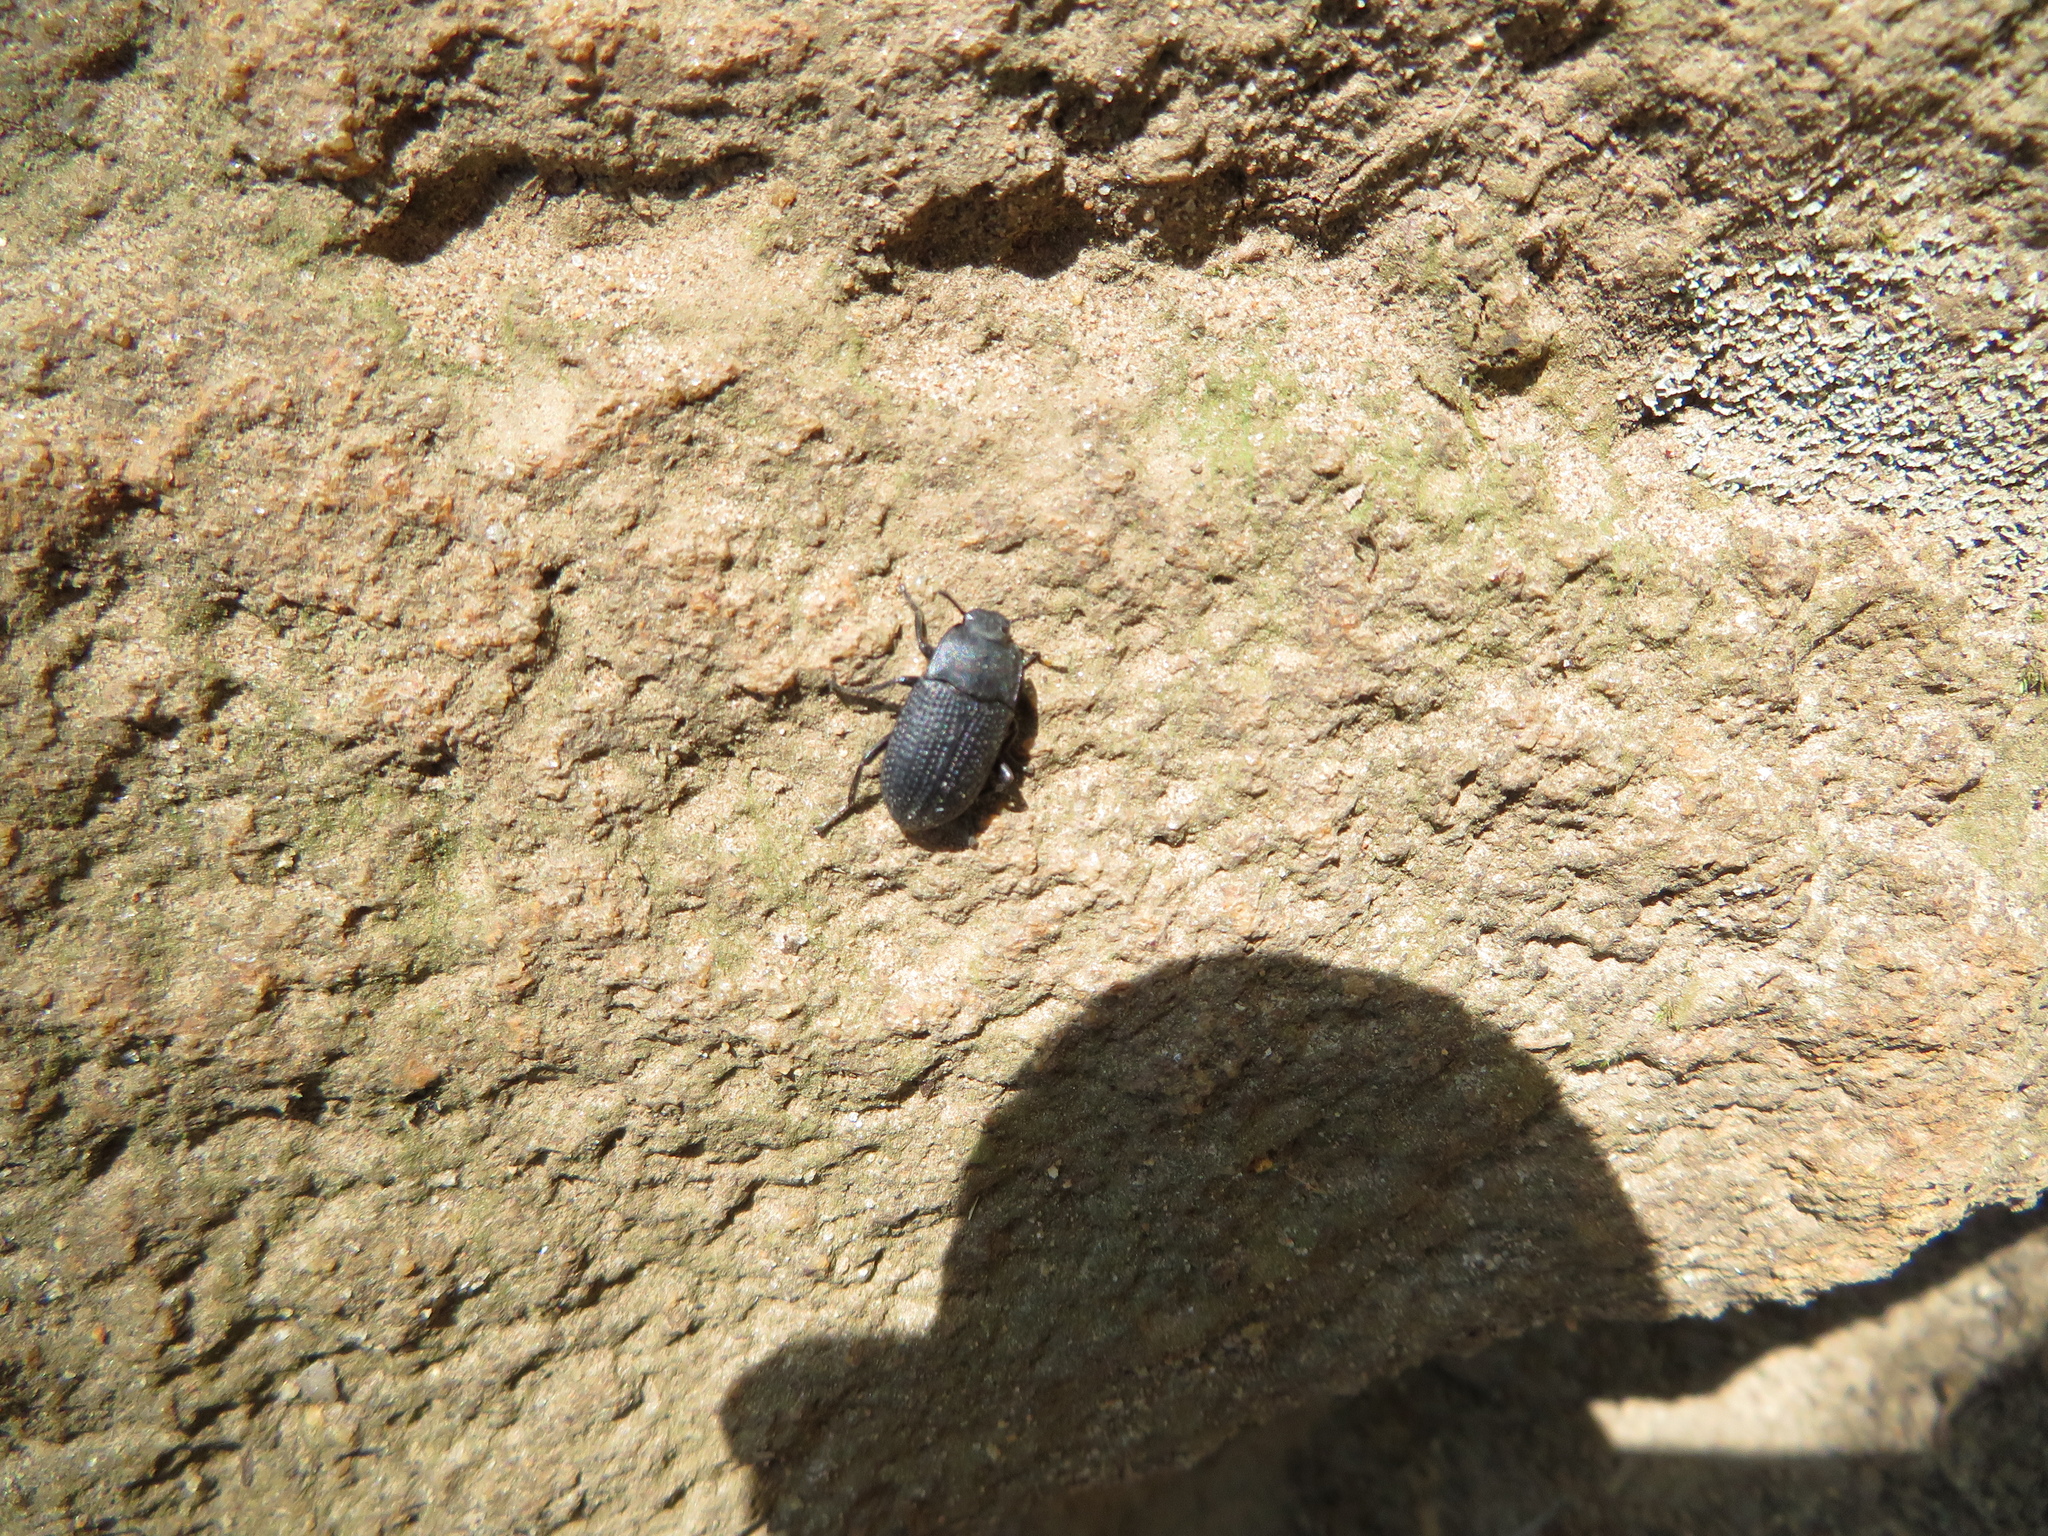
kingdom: Animalia
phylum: Arthropoda
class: Insecta
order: Coleoptera
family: Tenebrionidae
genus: Asiopus
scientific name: Asiopus
